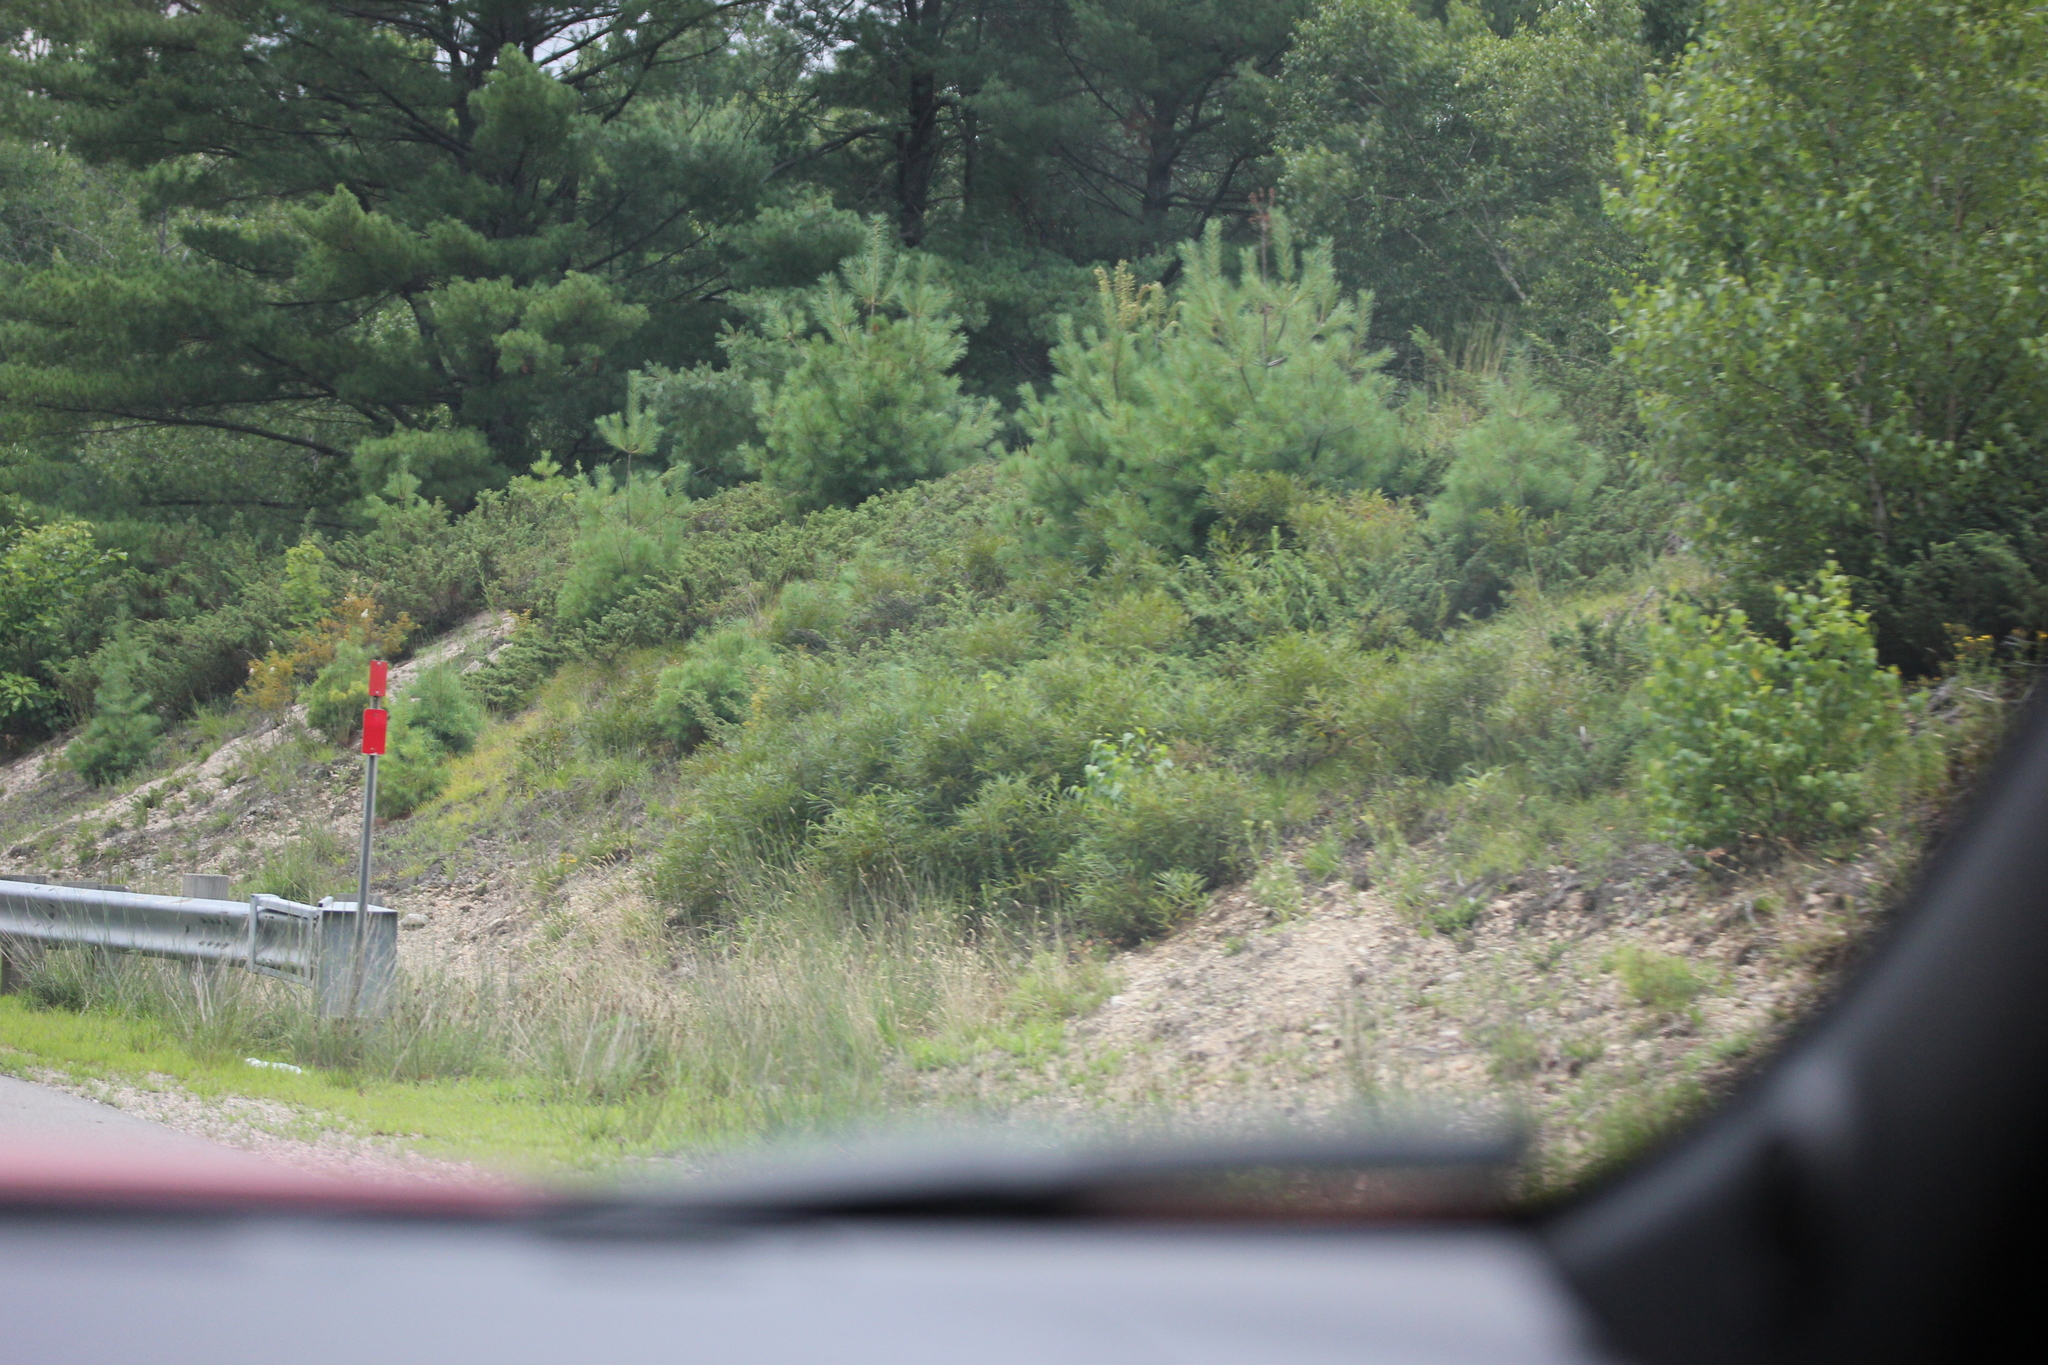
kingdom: Plantae
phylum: Tracheophyta
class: Pinopsida
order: Pinales
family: Pinaceae
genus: Pinus
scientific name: Pinus strobus
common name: Weymouth pine
